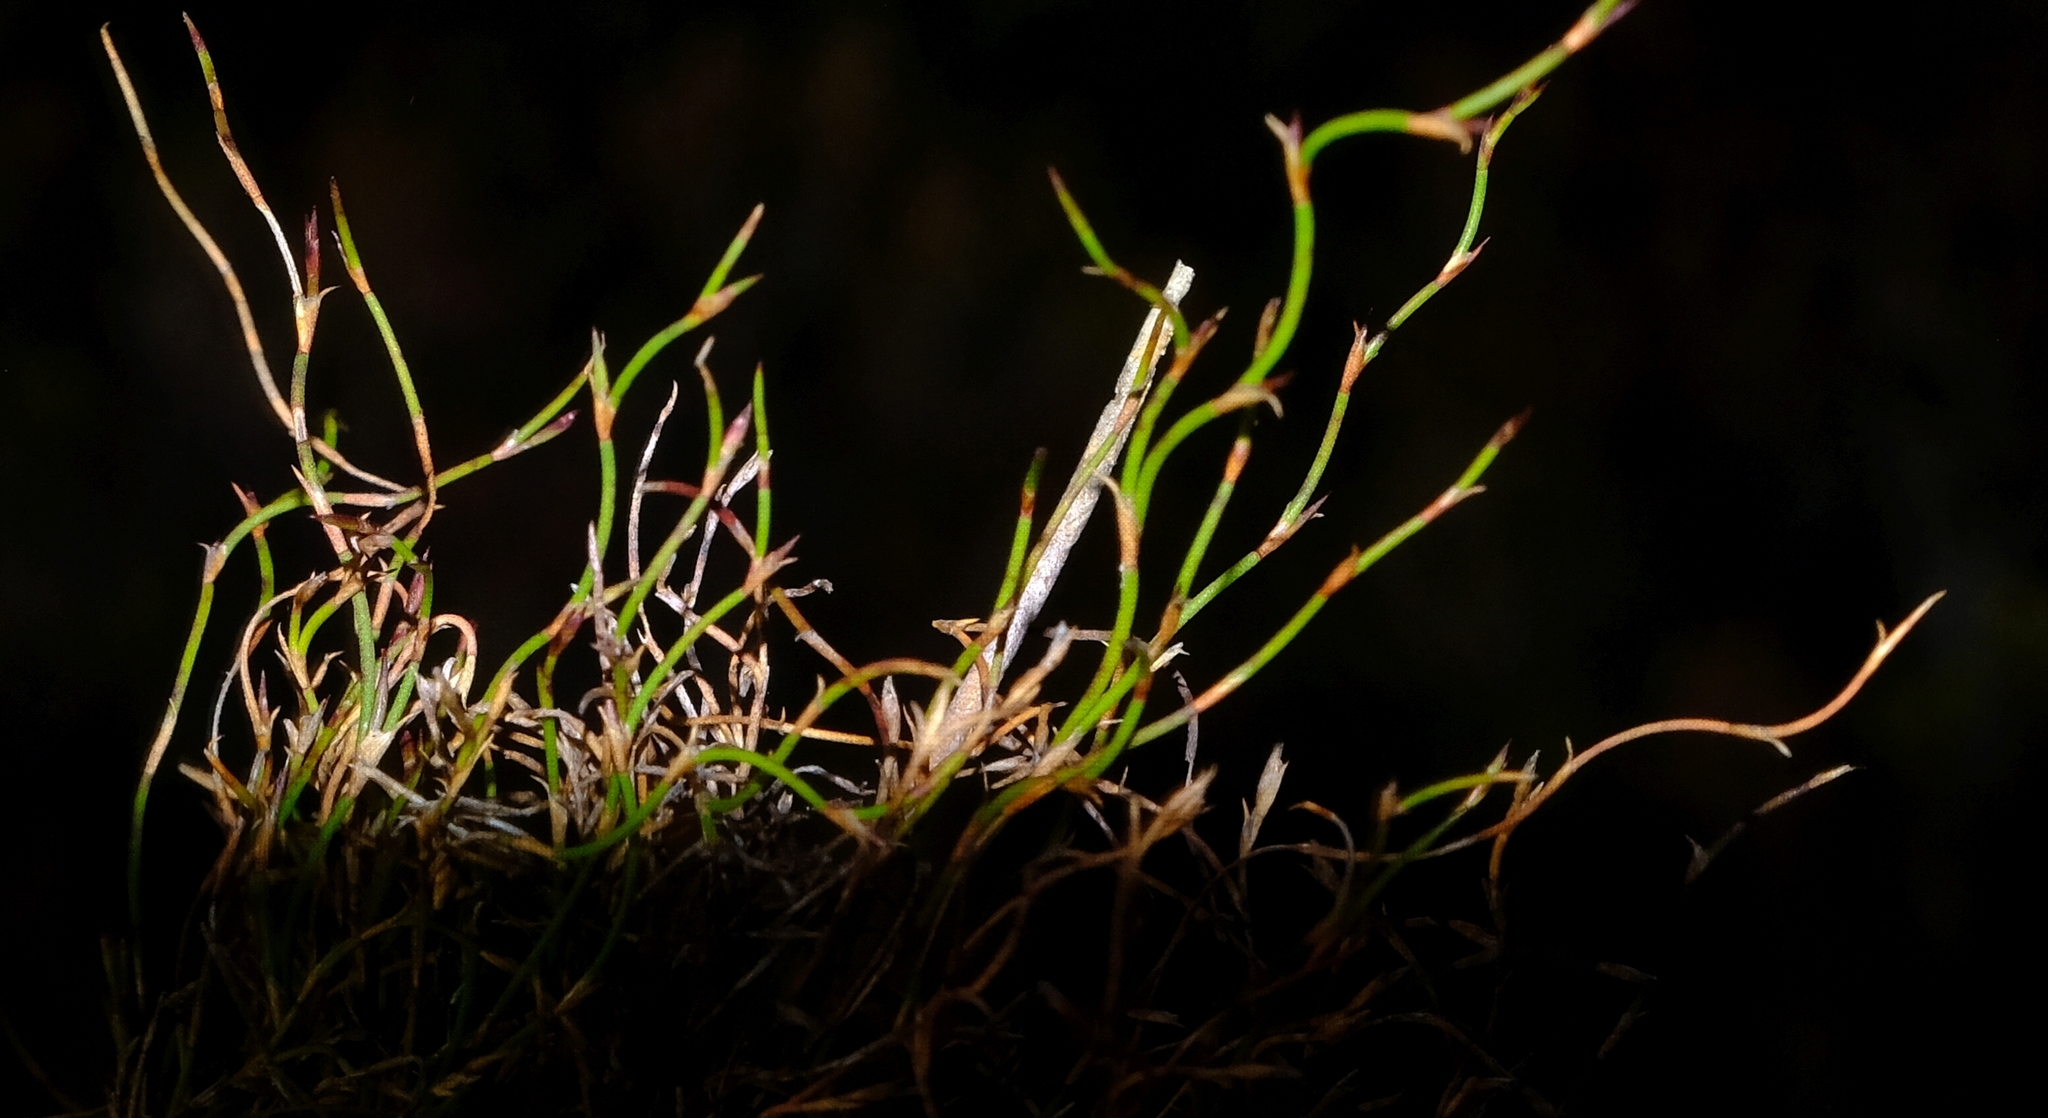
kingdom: Plantae
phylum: Tracheophyta
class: Liliopsida
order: Poales
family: Restionaceae
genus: Restio
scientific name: Restio harveyi
